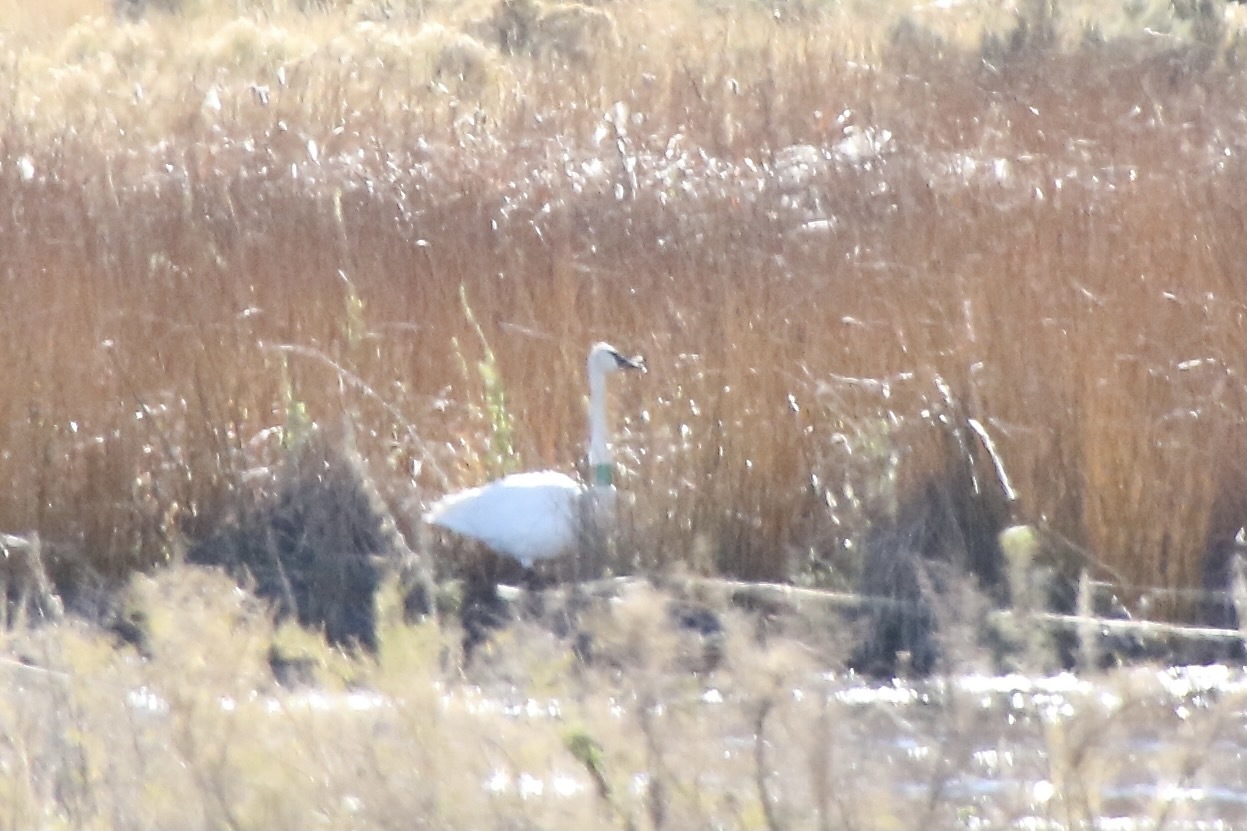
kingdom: Animalia
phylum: Chordata
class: Aves
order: Anseriformes
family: Anatidae
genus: Cygnus
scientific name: Cygnus buccinator
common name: Trumpeter swan
